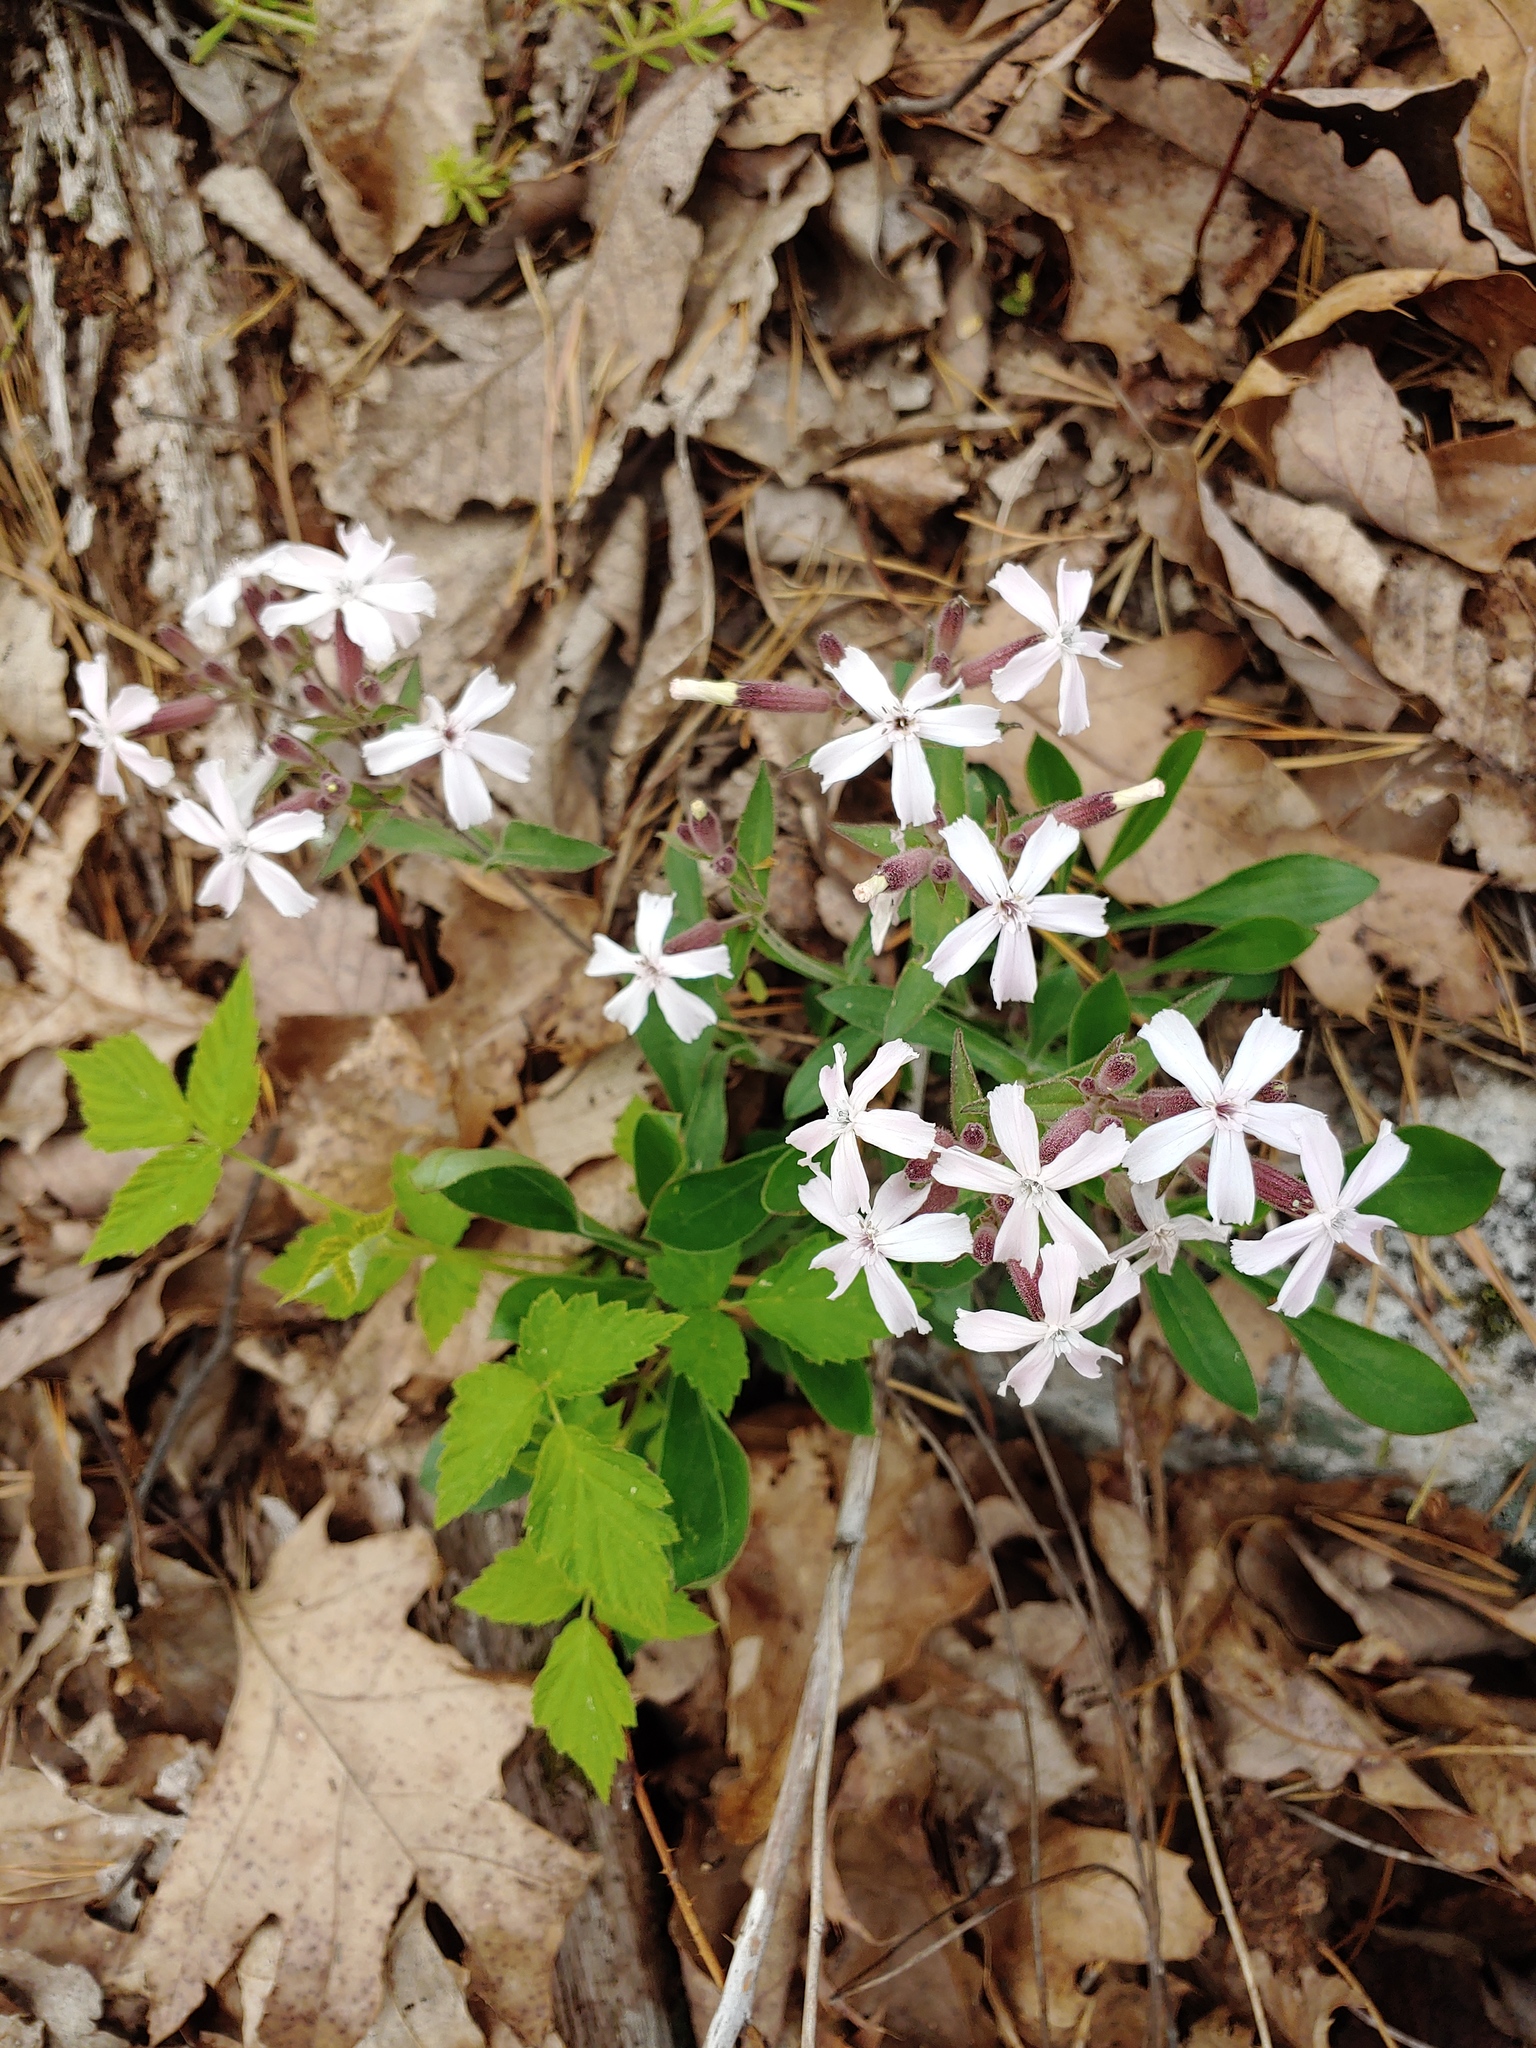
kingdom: Plantae
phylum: Tracheophyta
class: Magnoliopsida
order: Caryophyllales
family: Caryophyllaceae
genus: Silene
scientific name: Silene caroliniana
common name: Sticky catchfly
